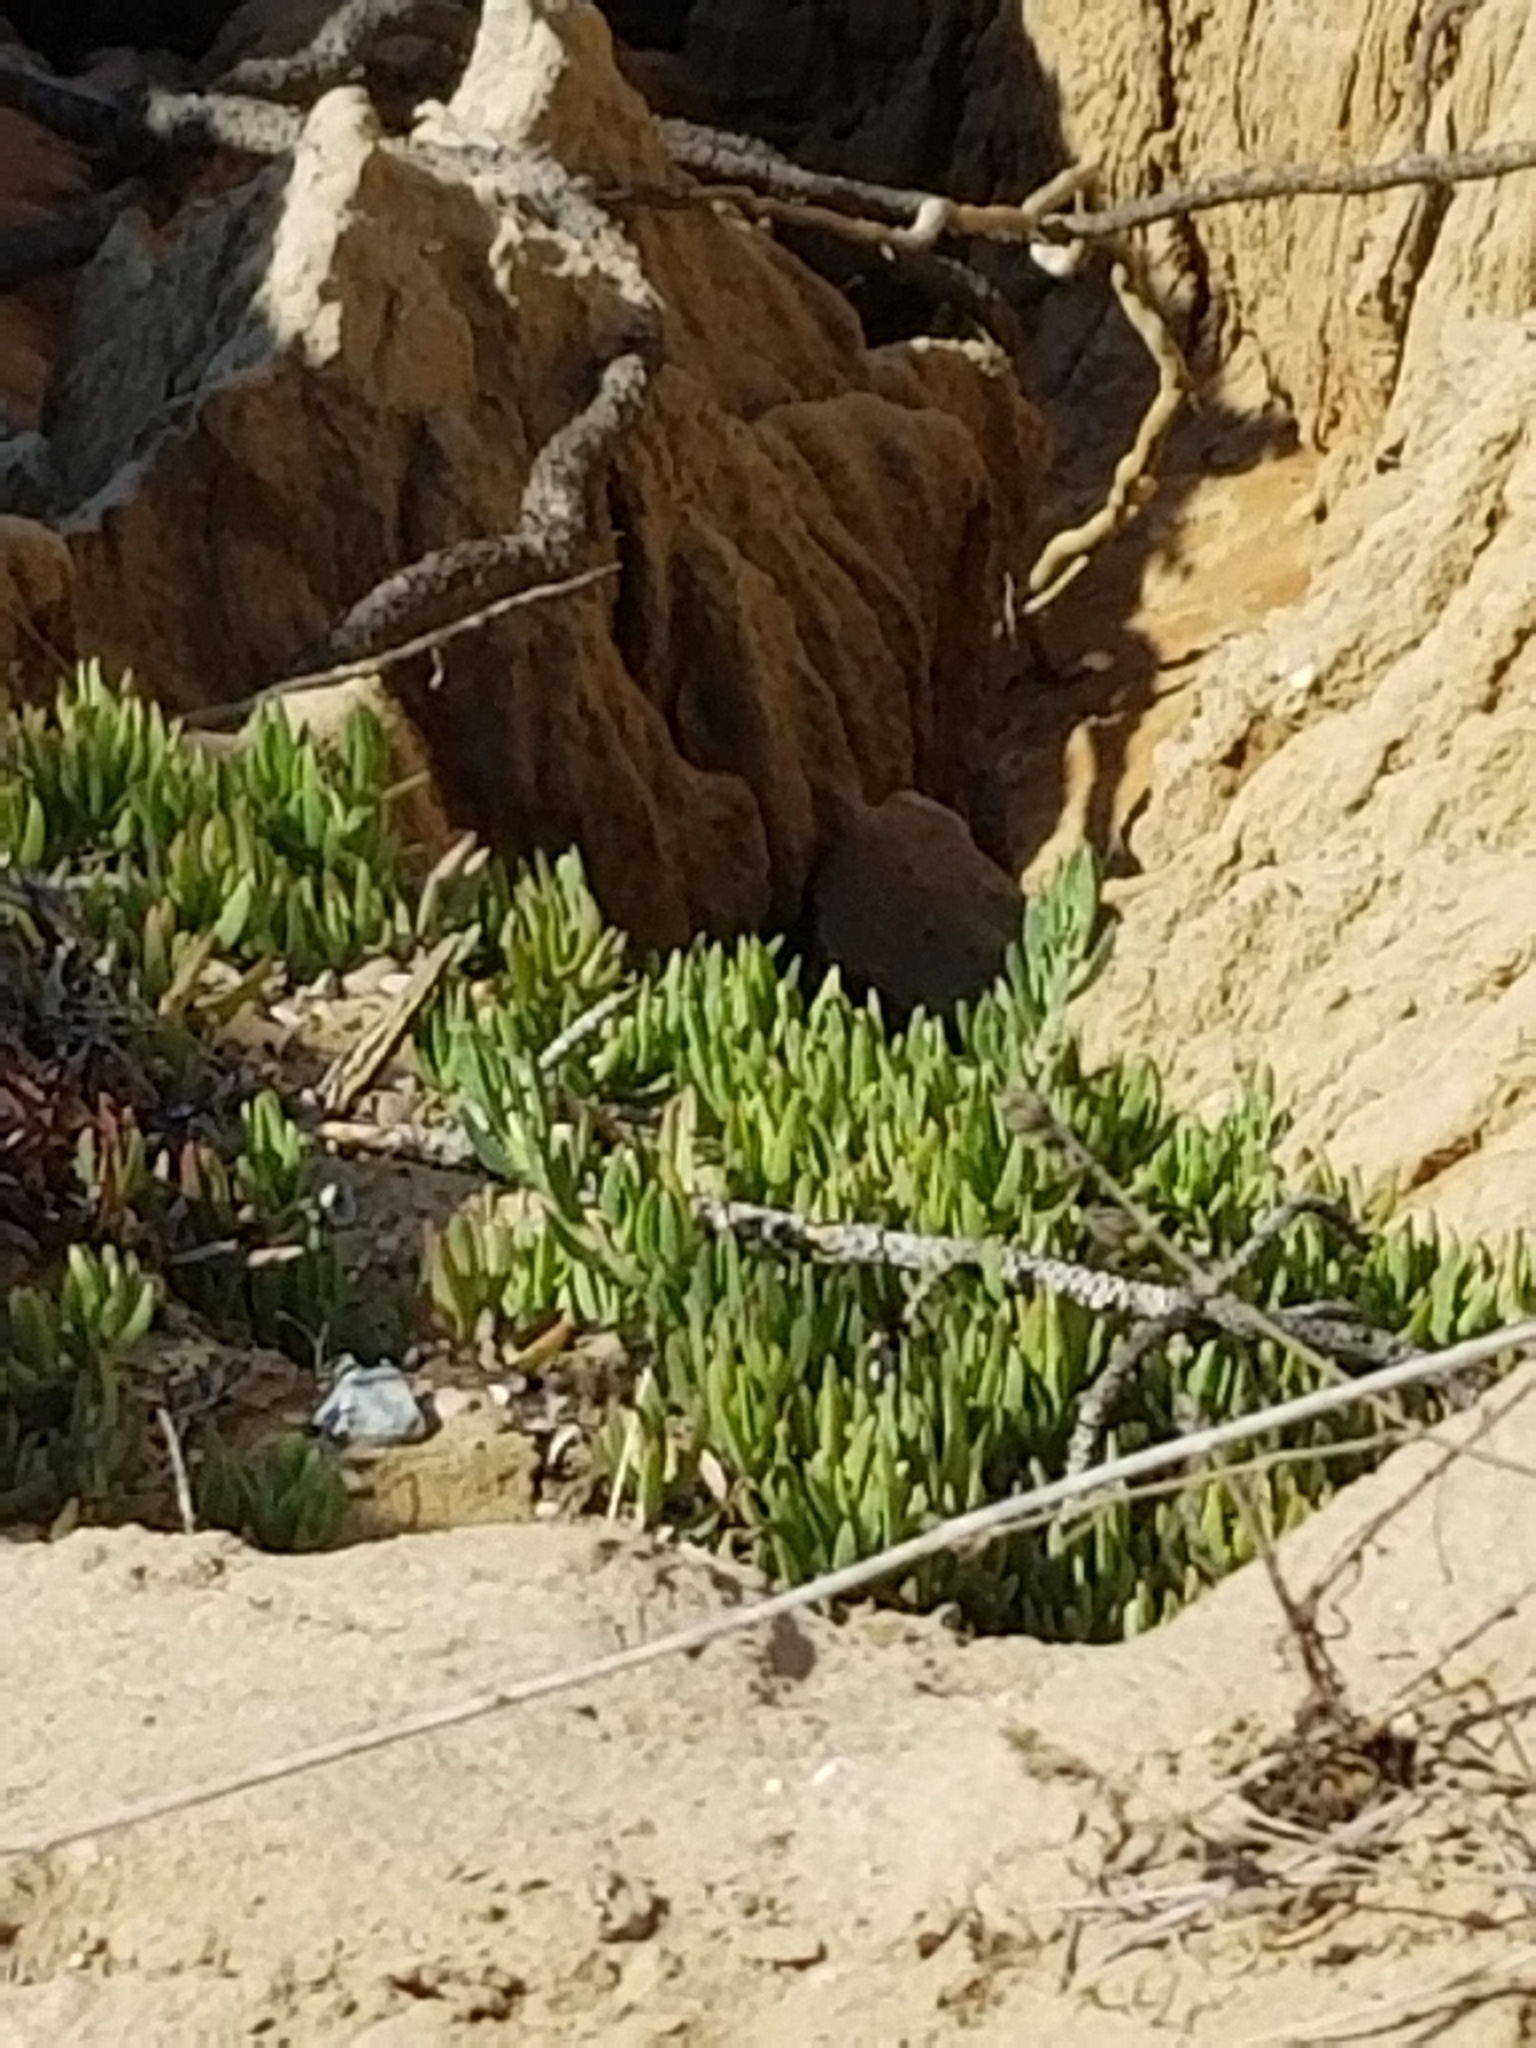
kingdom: Plantae
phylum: Tracheophyta
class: Magnoliopsida
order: Caryophyllales
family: Aizoaceae
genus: Carpobrotus
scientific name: Carpobrotus edulis
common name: Hottentot-fig
